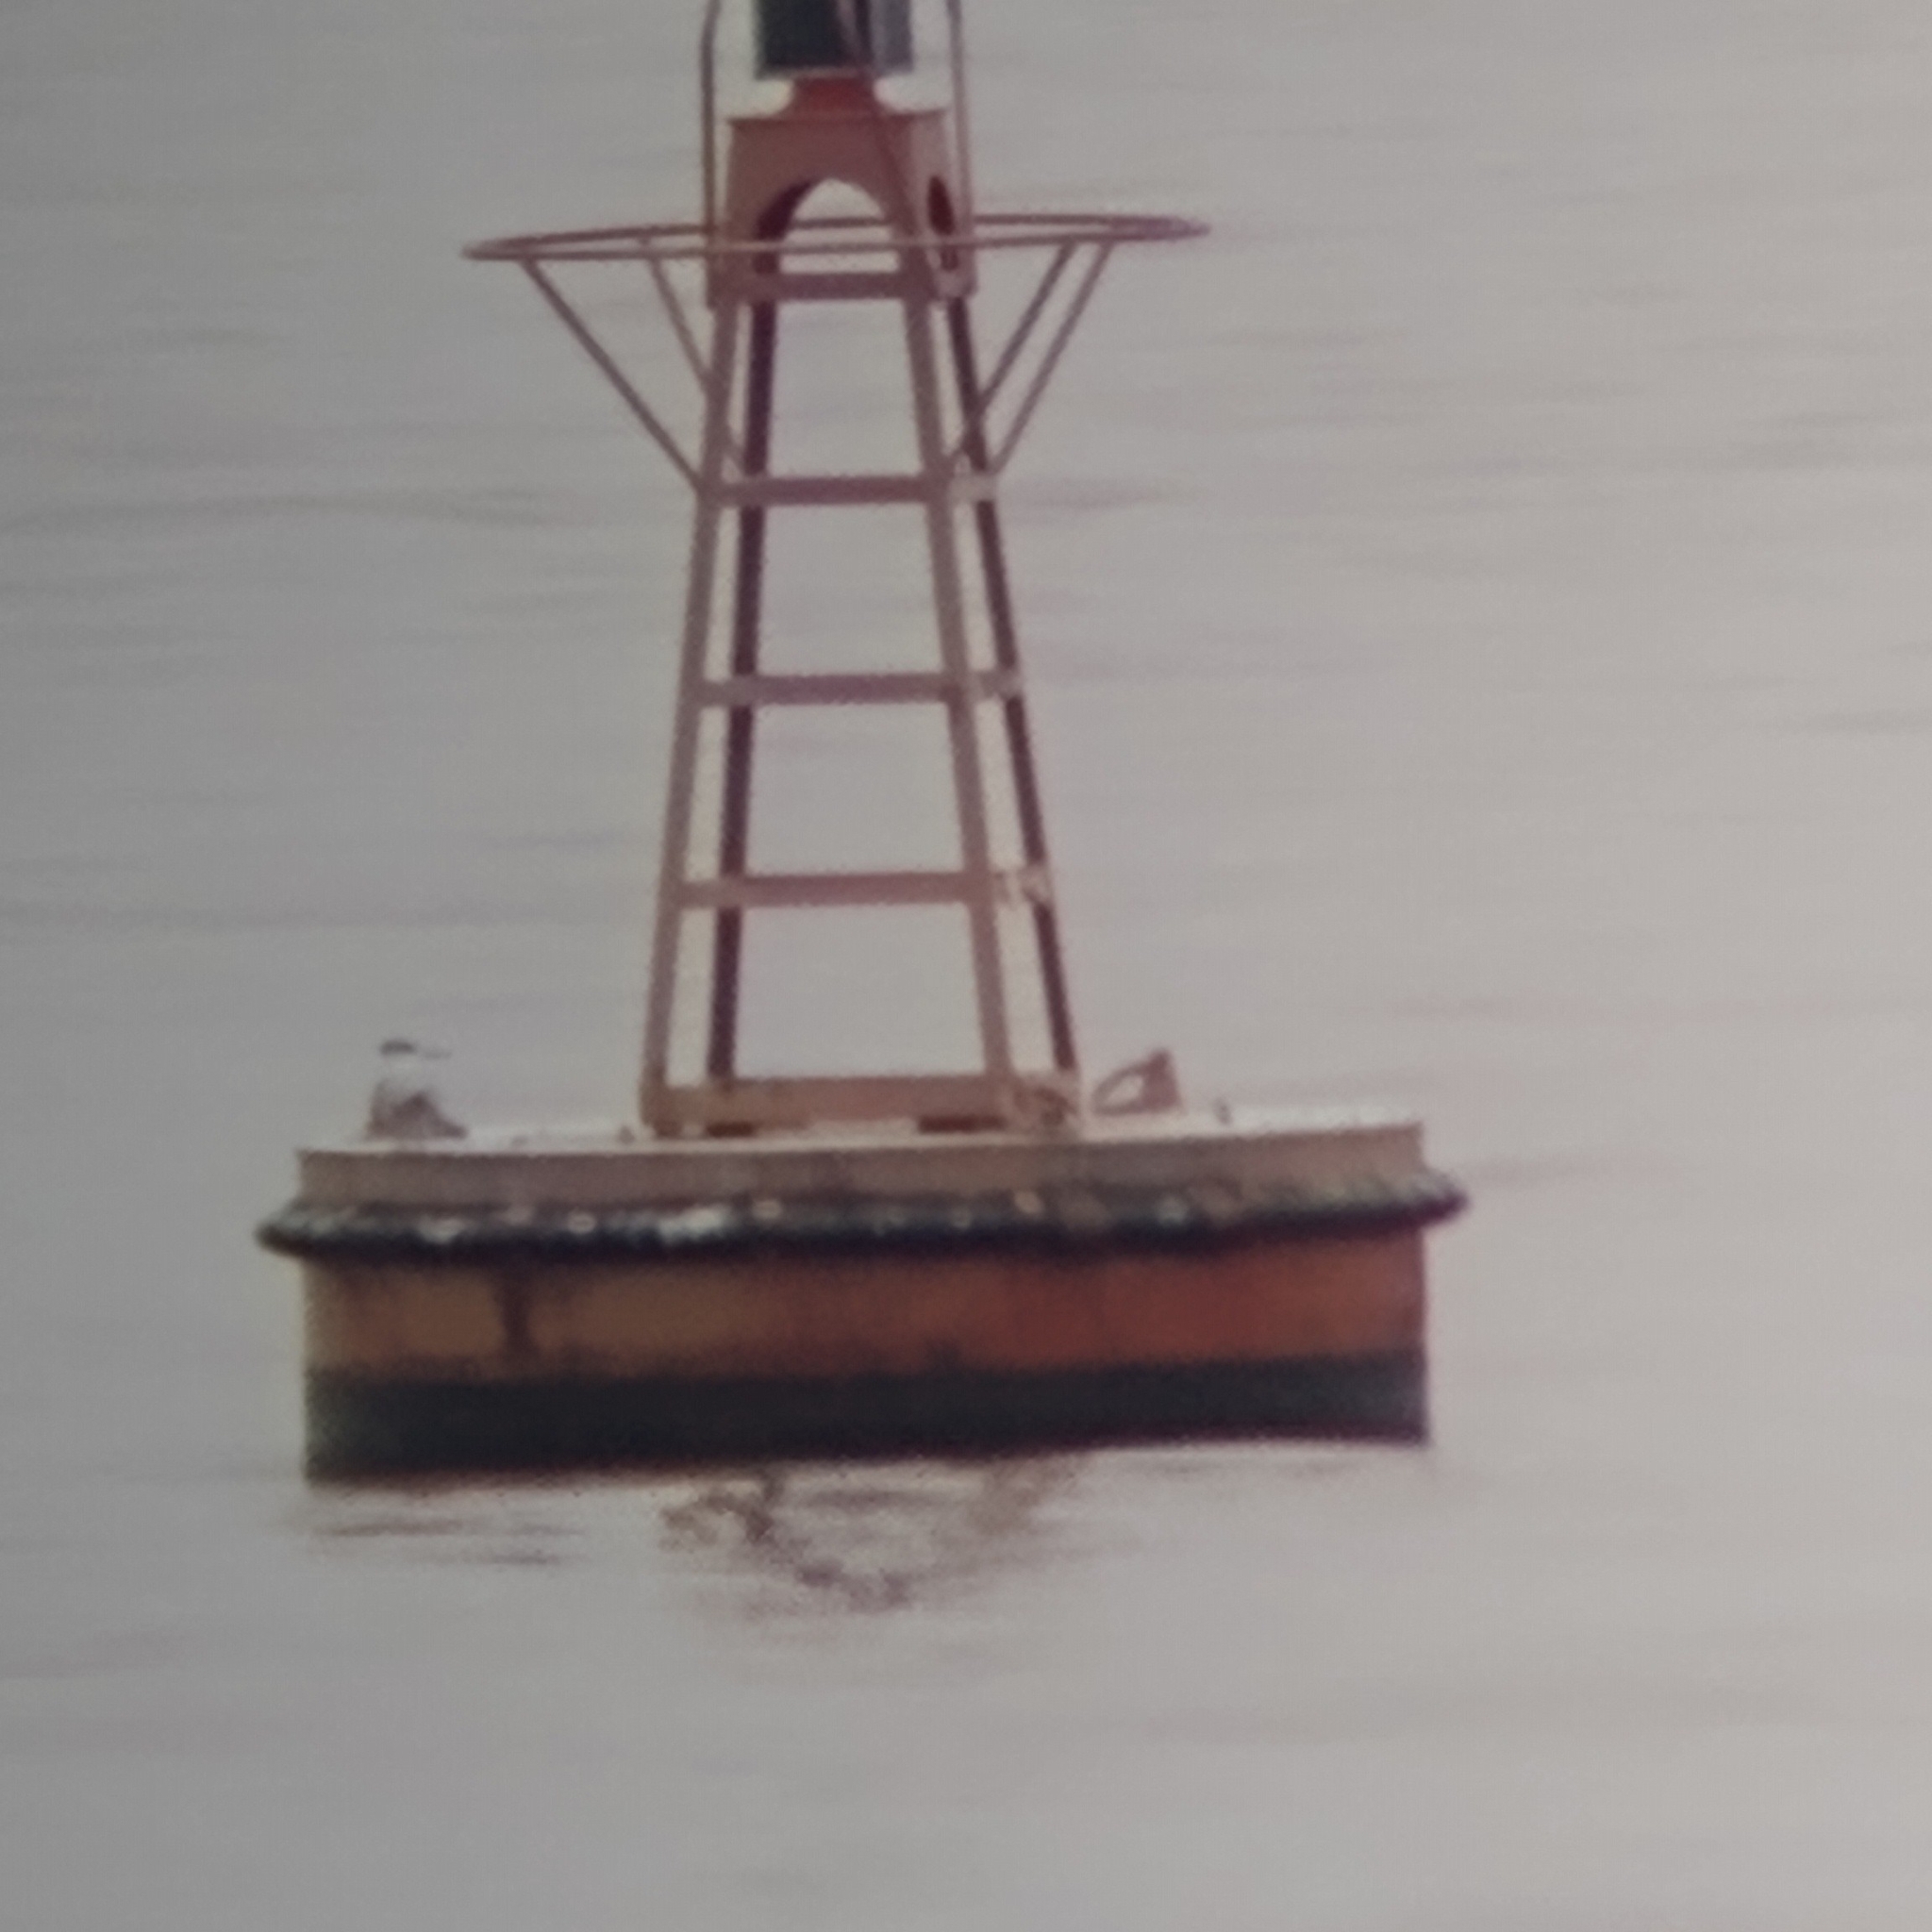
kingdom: Animalia
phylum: Chordata
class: Aves
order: Charadriiformes
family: Laridae
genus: Thalasseus
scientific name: Thalasseus maximus
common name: Royal tern
